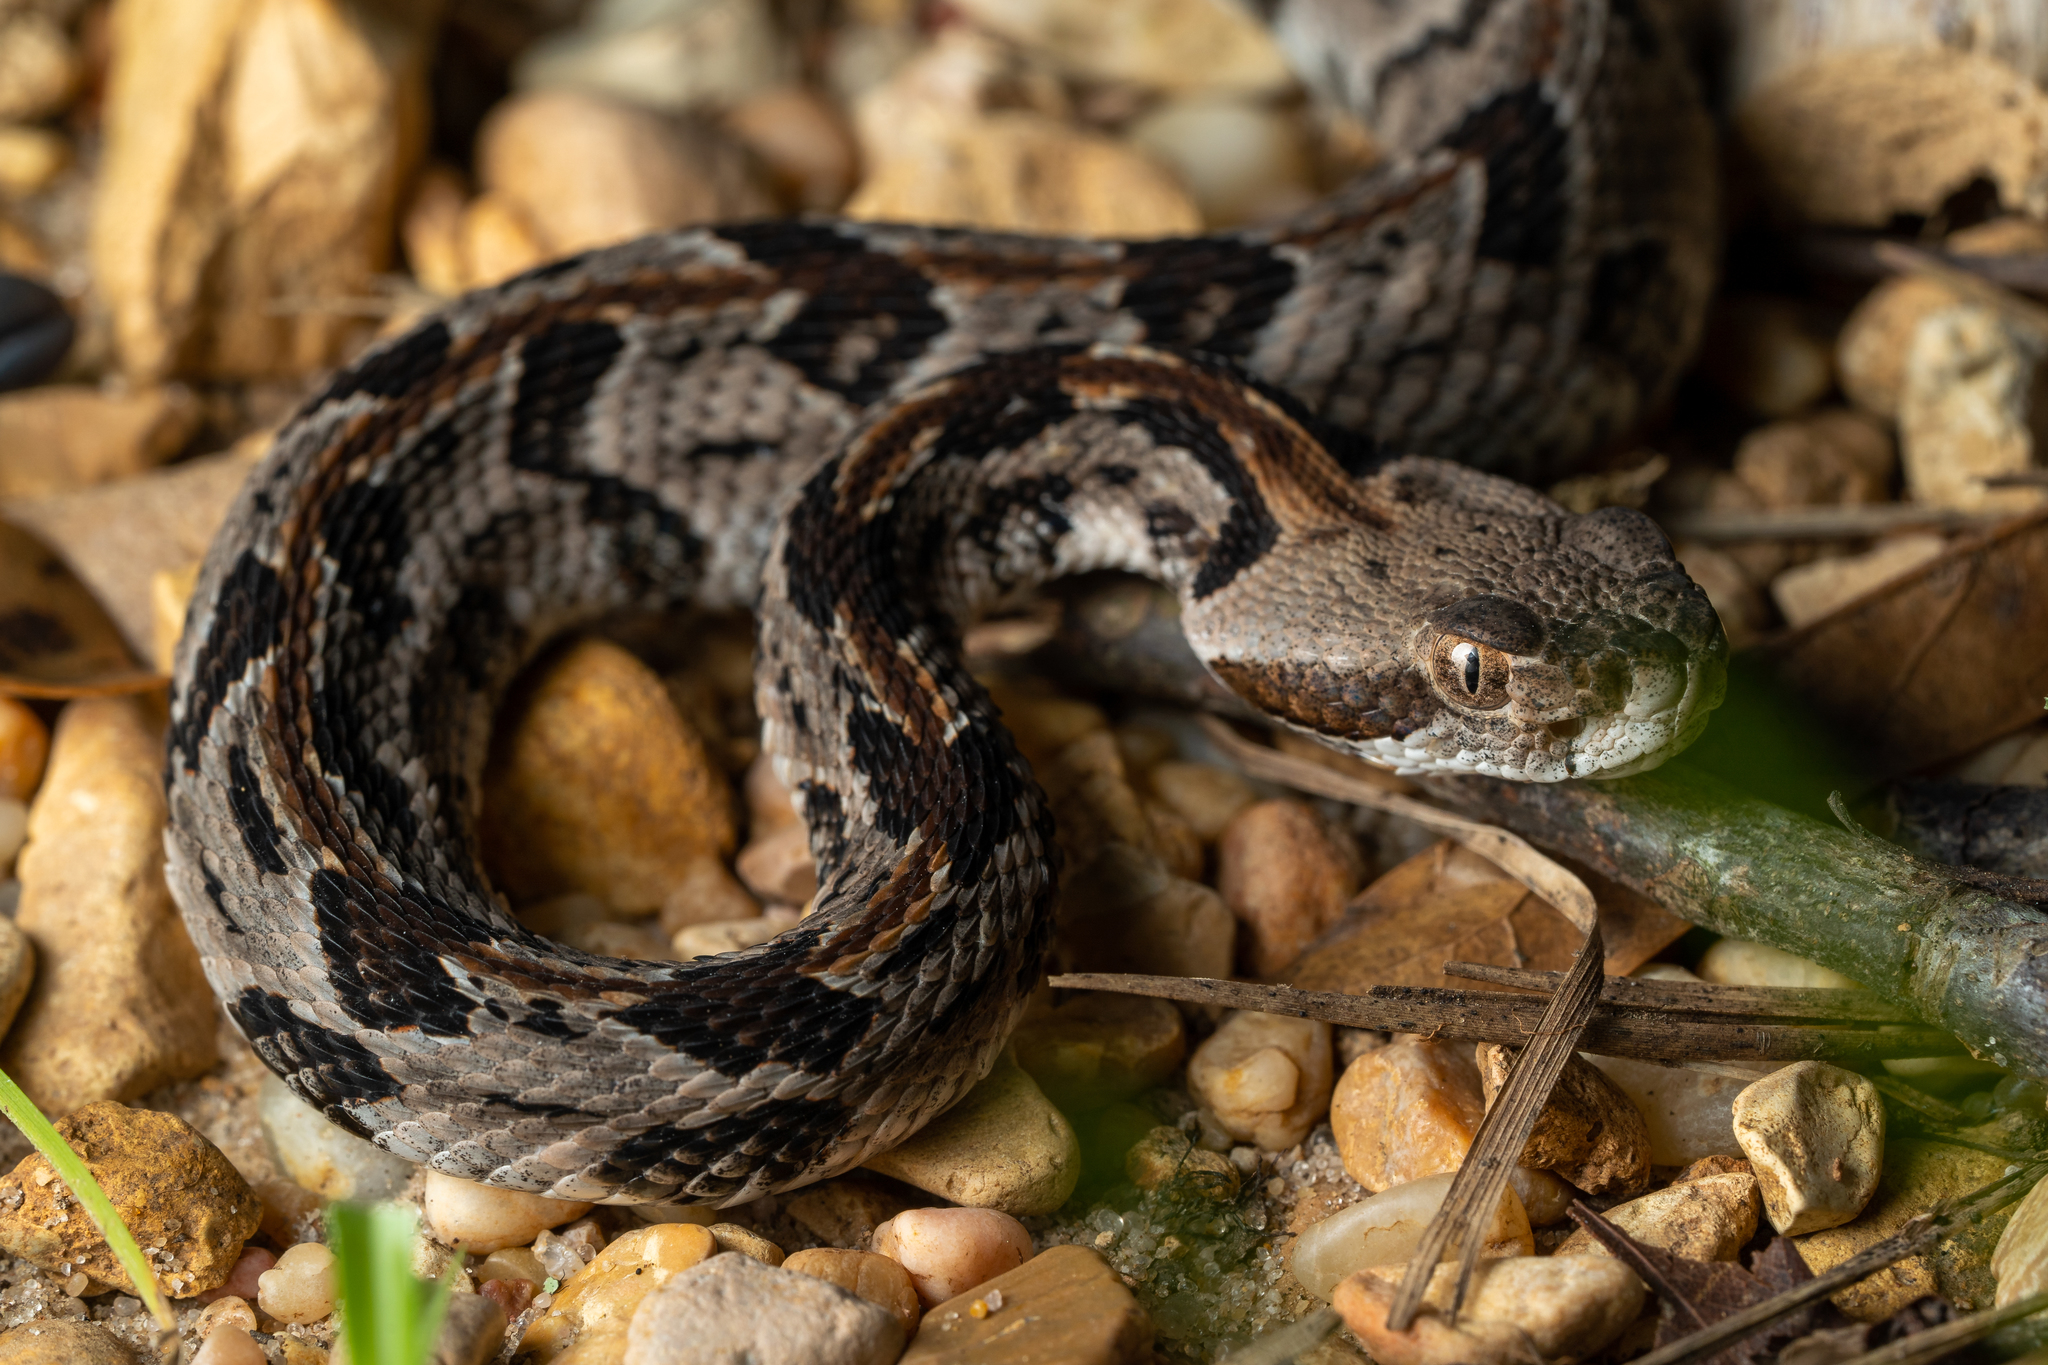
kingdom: Animalia
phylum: Chordata
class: Squamata
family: Viperidae
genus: Crotalus
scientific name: Crotalus horridus
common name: Timber rattlesnake
